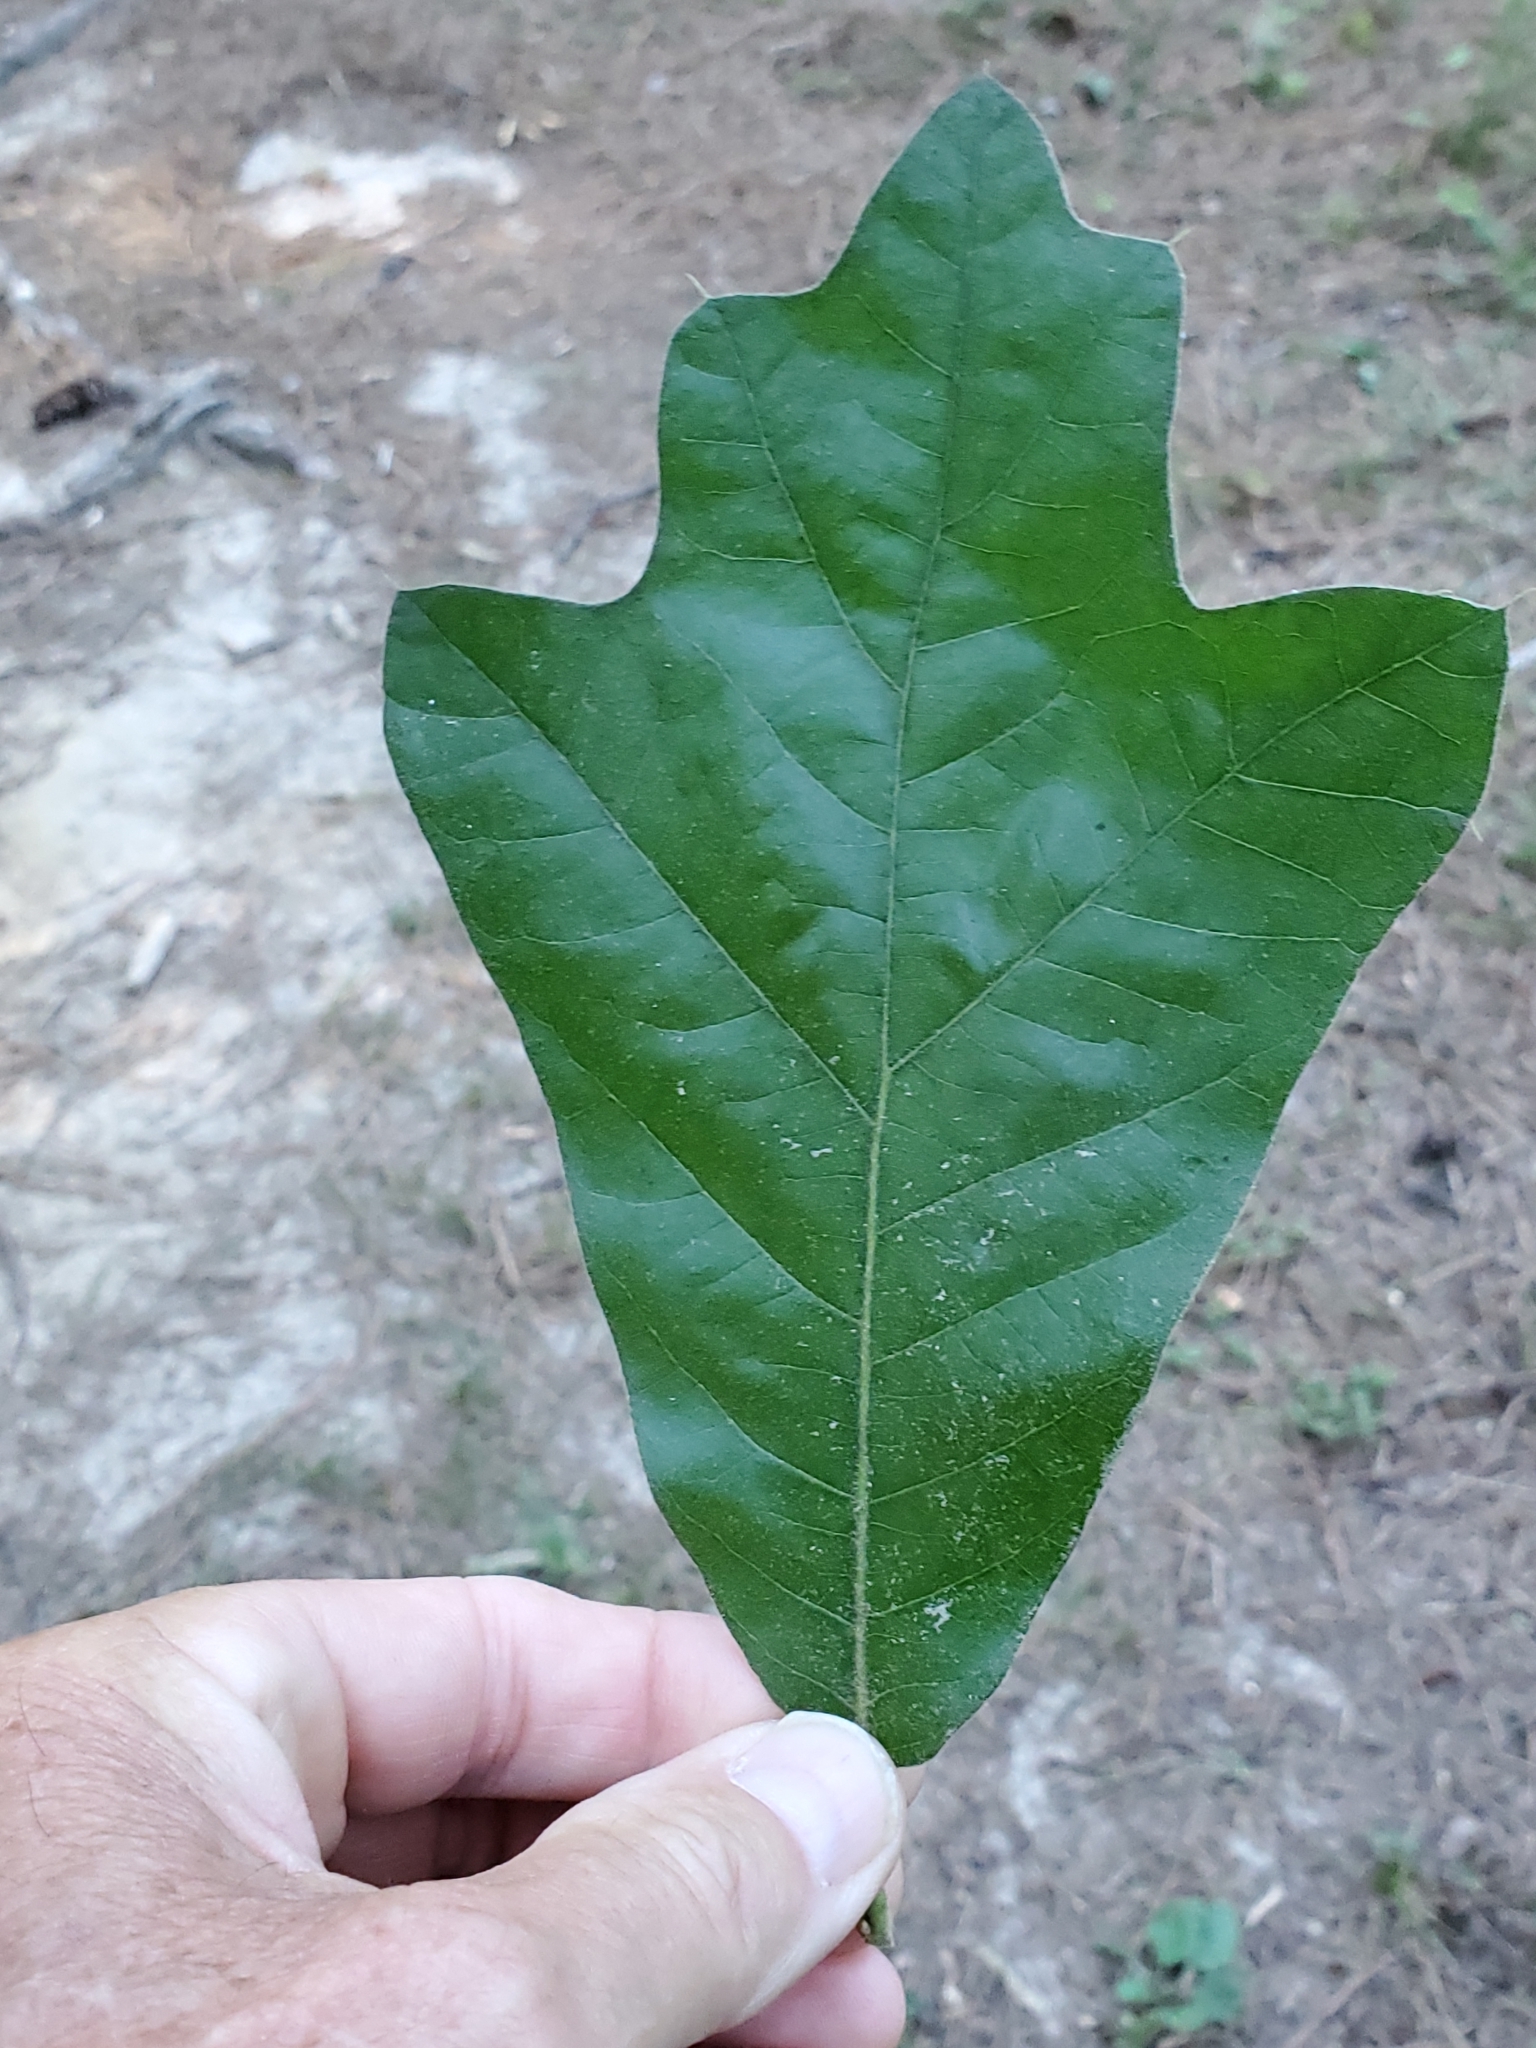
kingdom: Plantae
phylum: Tracheophyta
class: Magnoliopsida
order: Fagales
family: Fagaceae
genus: Quercus
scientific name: Quercus falcata
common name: Southern red oak
